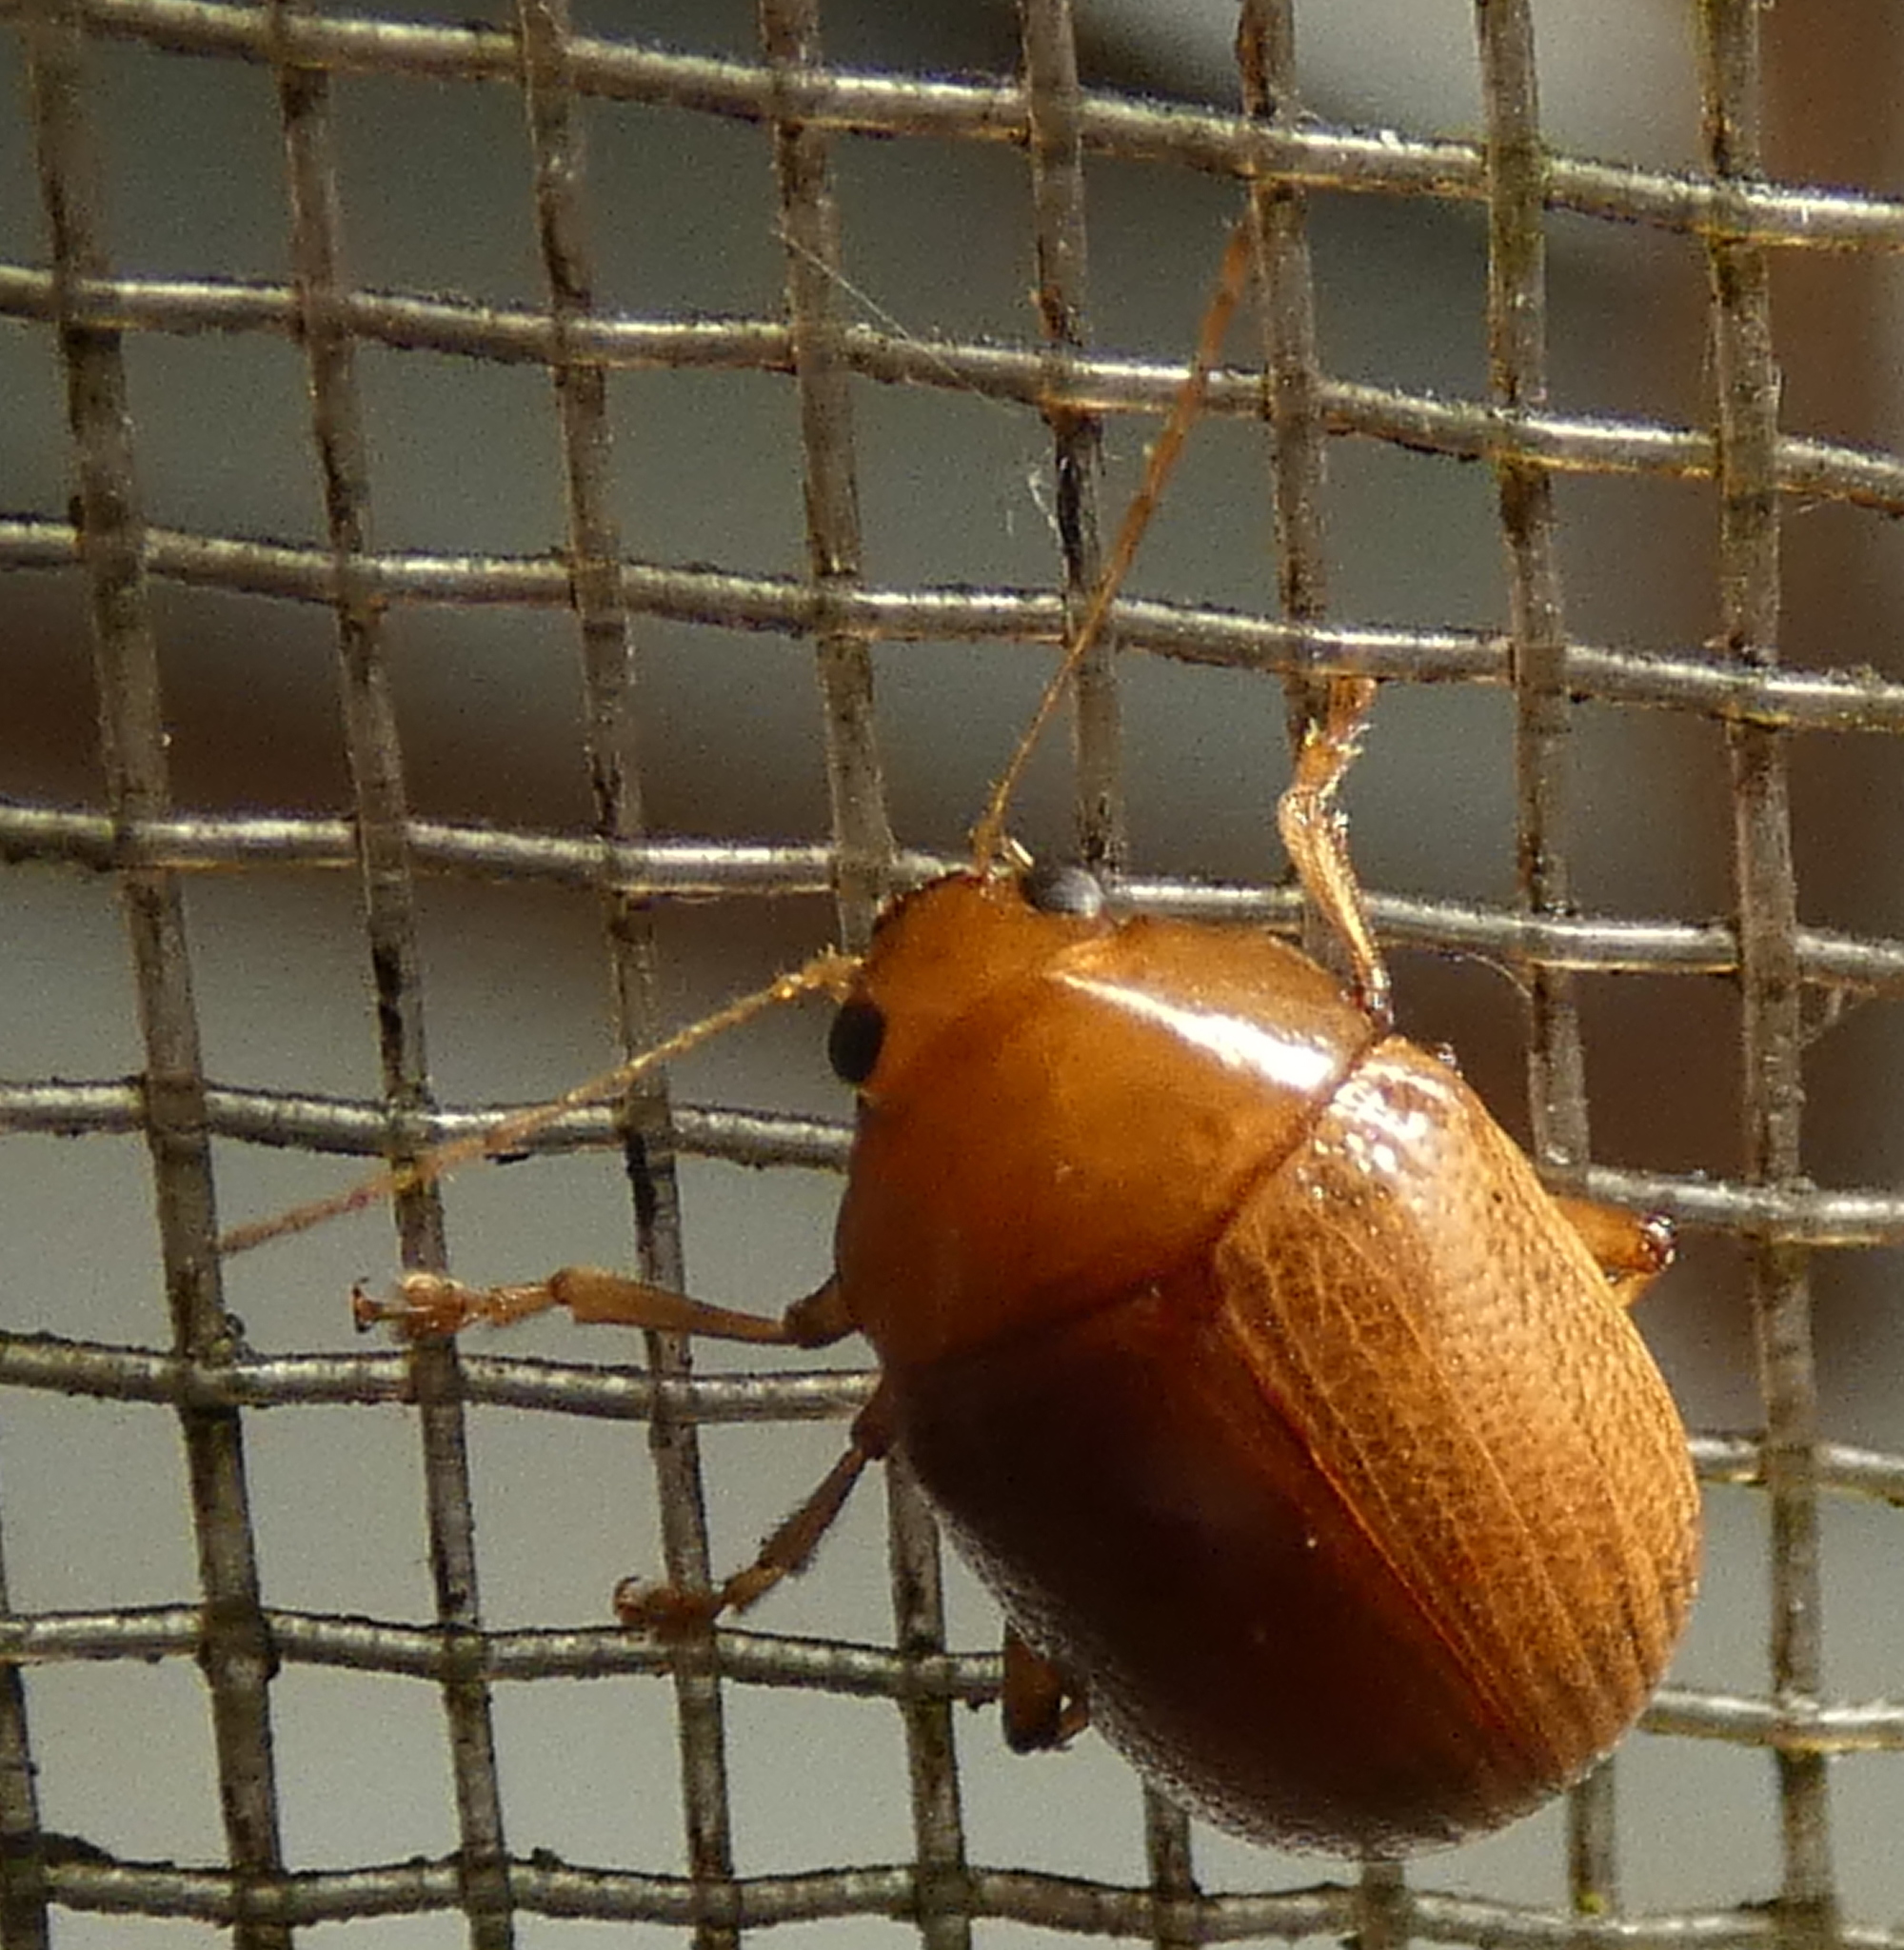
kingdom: Animalia
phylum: Arthropoda
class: Insecta
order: Coleoptera
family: Chrysomelidae
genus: Anisodera
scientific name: Anisodera ferruginea
